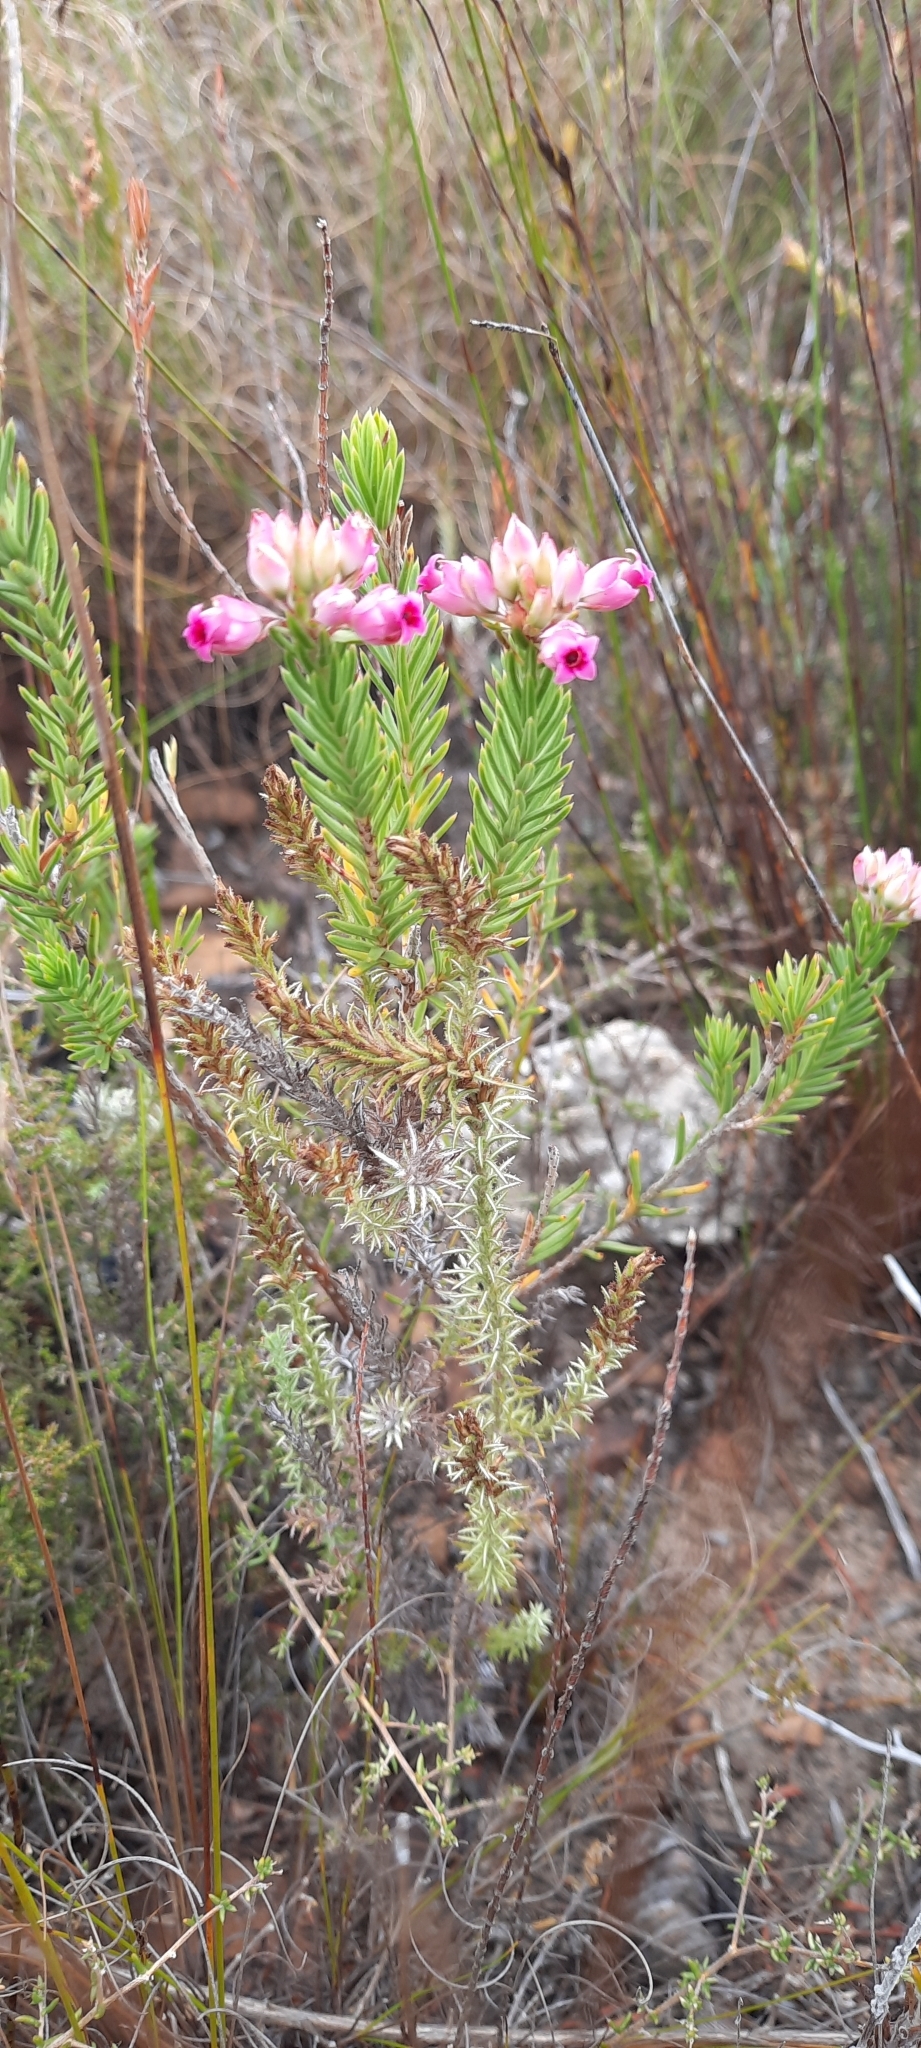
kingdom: Plantae
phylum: Tracheophyta
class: Magnoliopsida
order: Ericales
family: Ericaceae
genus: Erica
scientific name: Erica taxifolia
